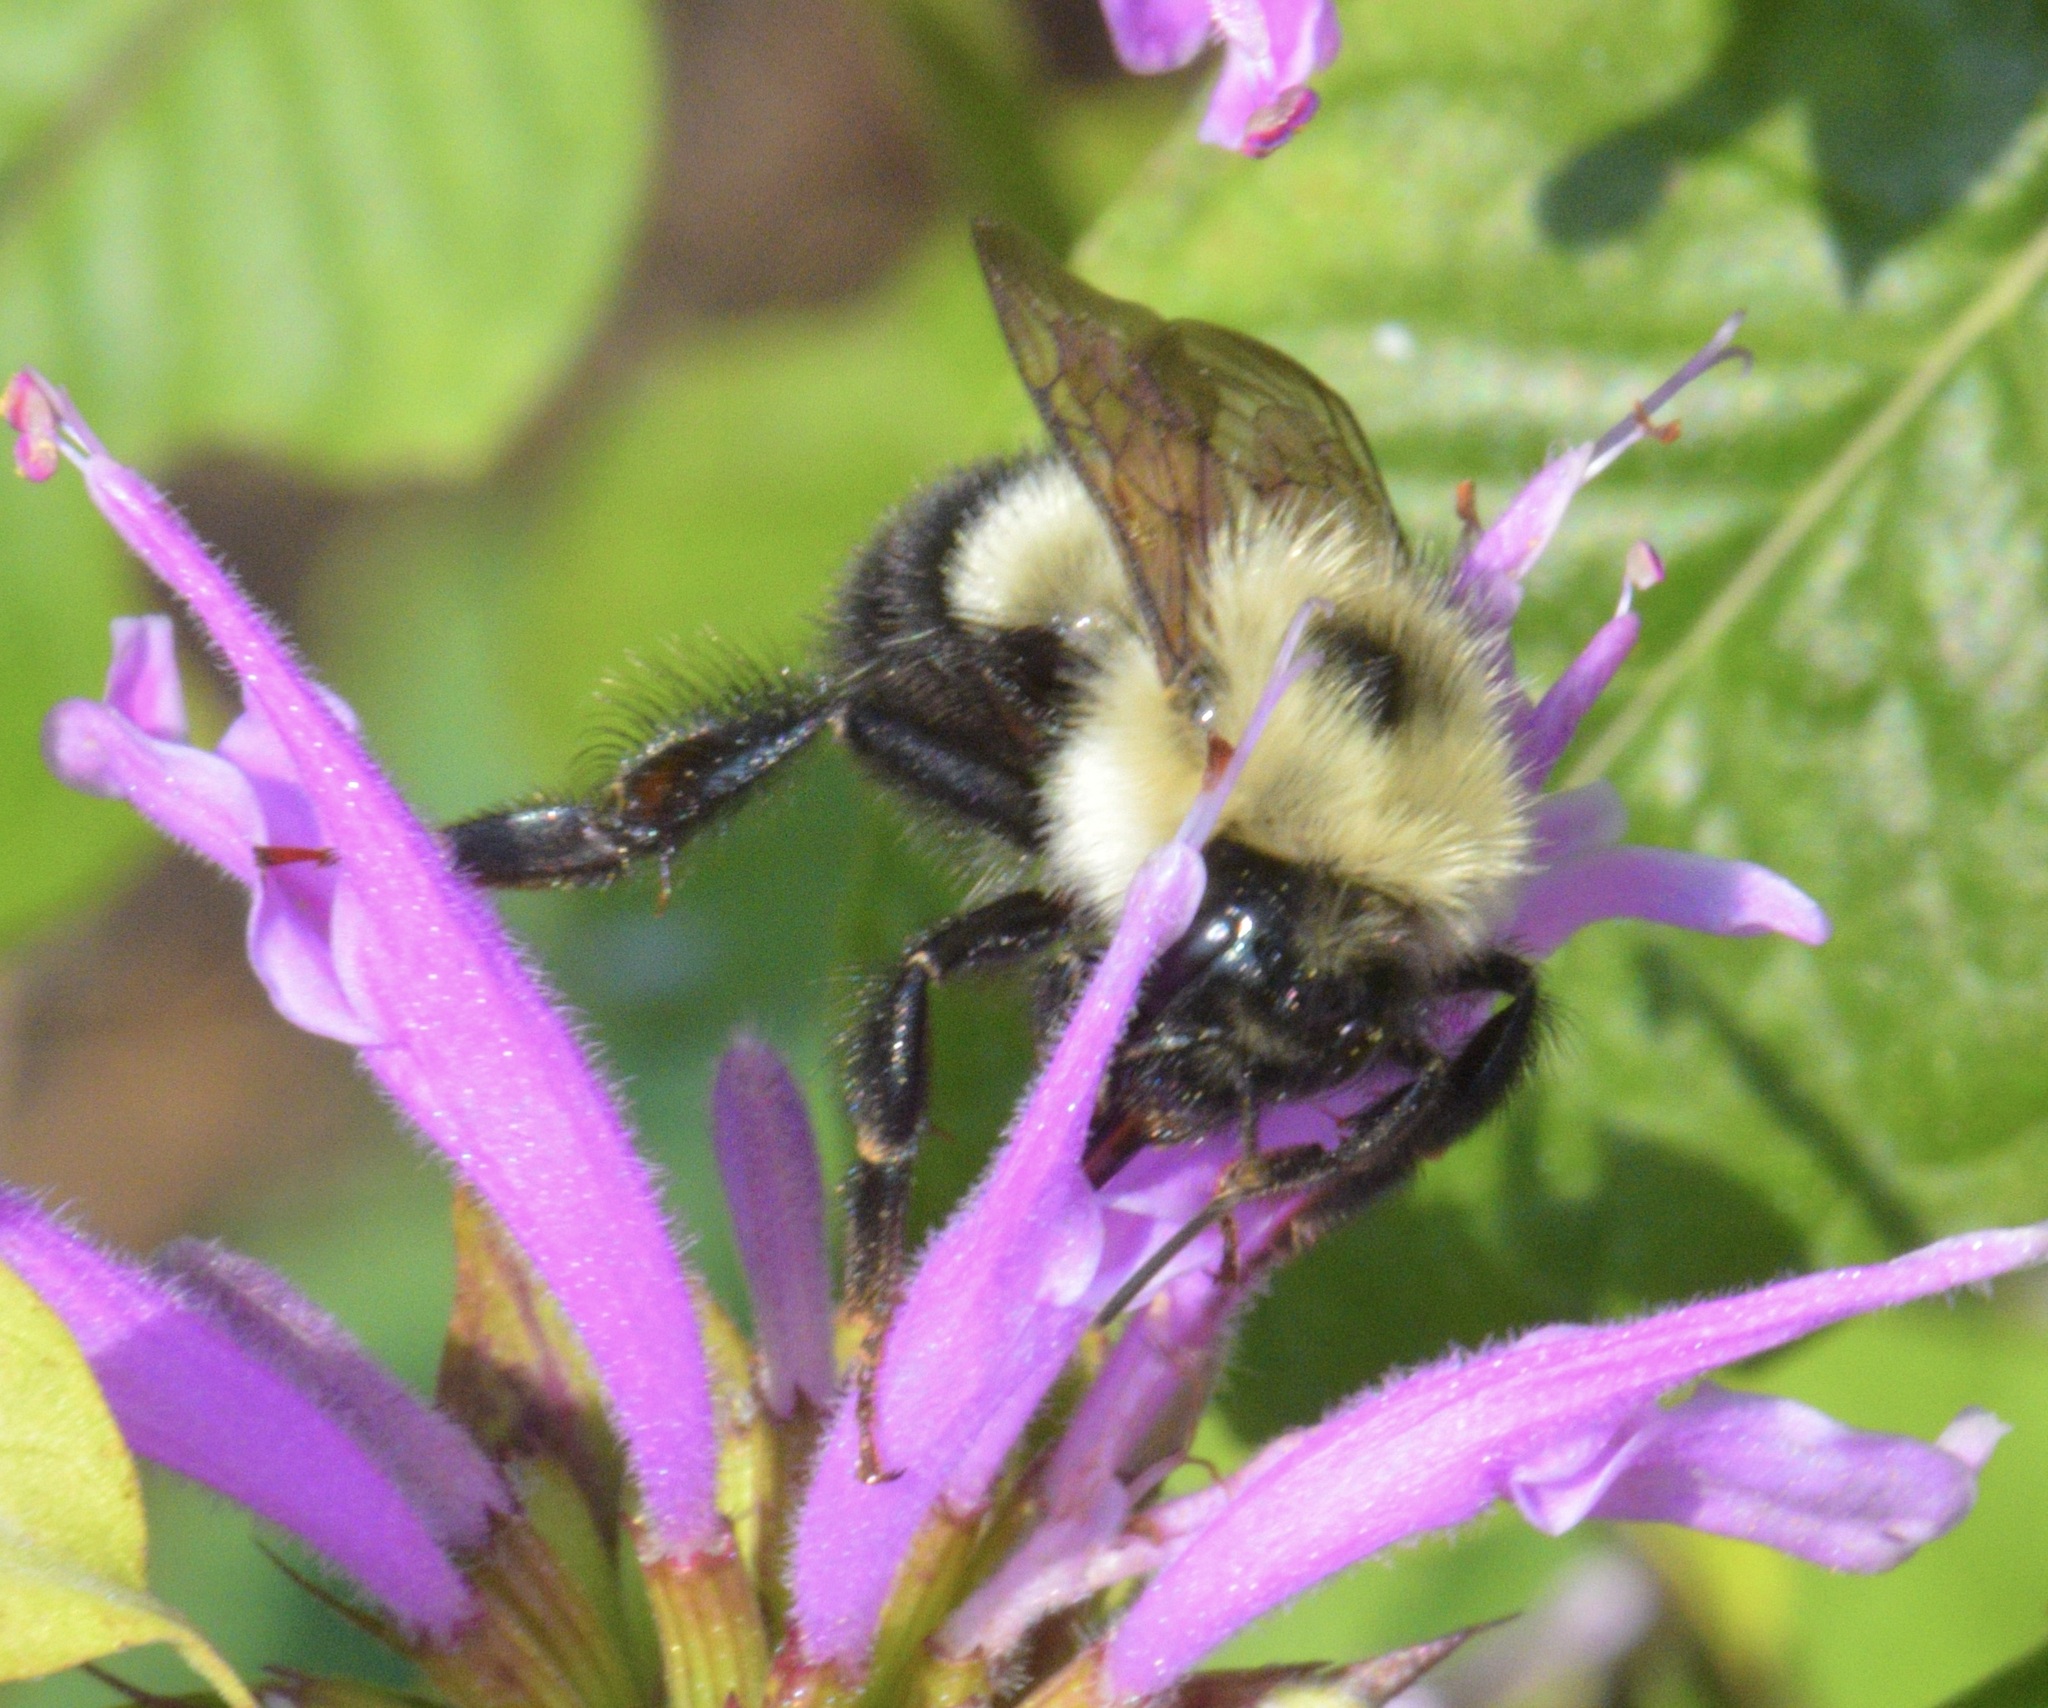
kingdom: Animalia
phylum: Arthropoda
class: Insecta
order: Hymenoptera
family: Apidae
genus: Bombus
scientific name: Bombus vagans
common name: Half-black bumble bee
